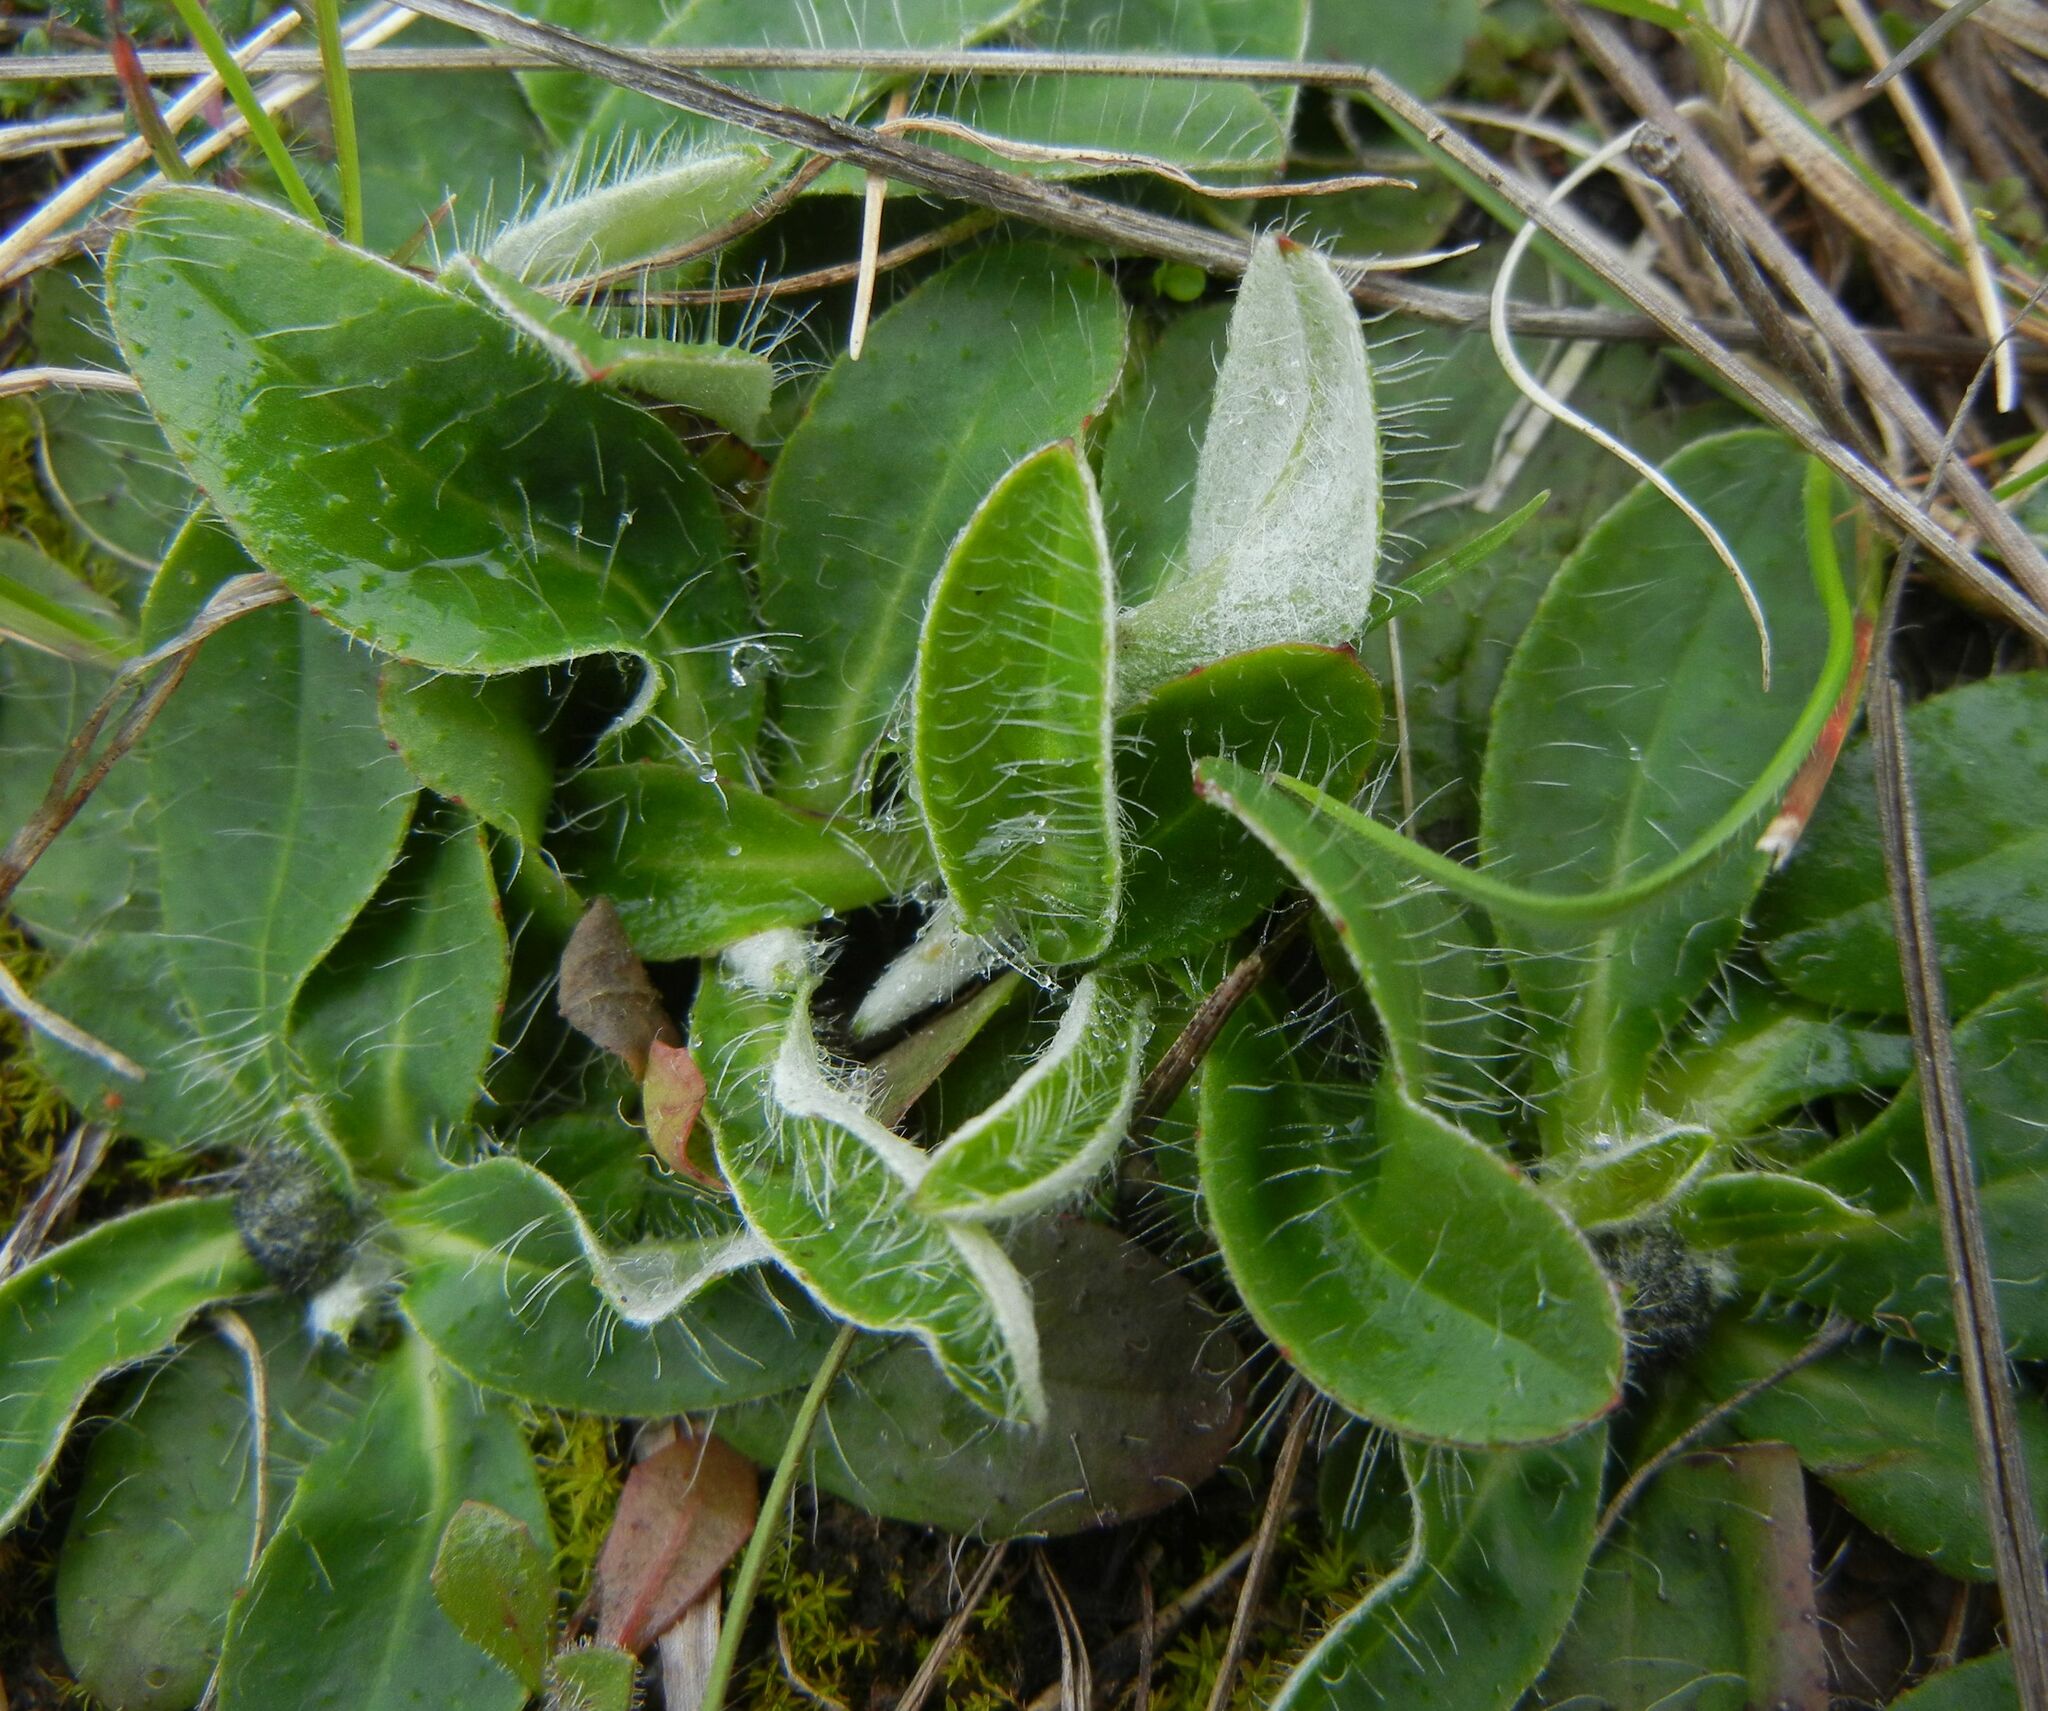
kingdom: Plantae
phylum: Tracheophyta
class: Magnoliopsida
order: Asterales
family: Asteraceae
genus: Pilosella
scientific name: Pilosella officinarum
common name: Mouse-ear hawkweed
